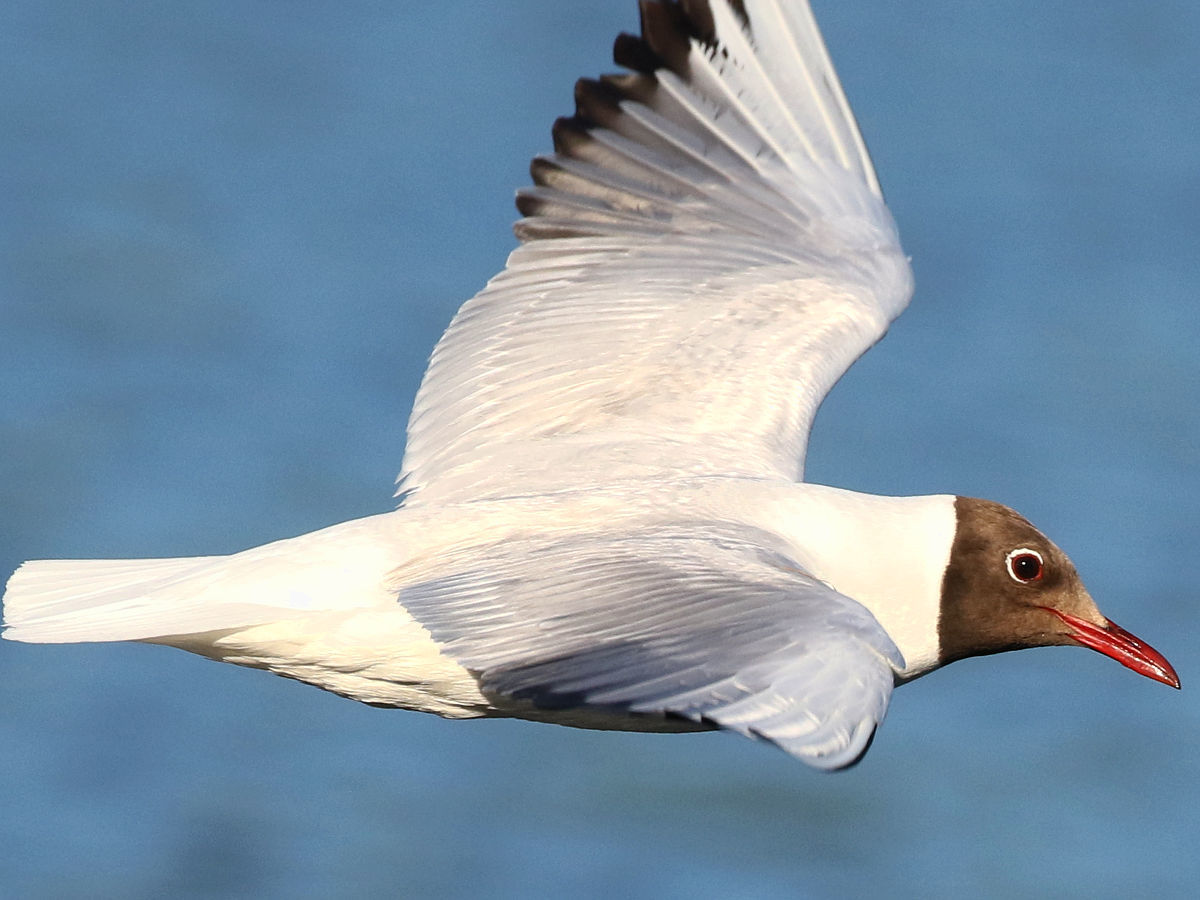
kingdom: Animalia
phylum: Chordata
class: Aves
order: Charadriiformes
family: Laridae
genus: Chroicocephalus
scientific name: Chroicocephalus ridibundus
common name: Black-headed gull
